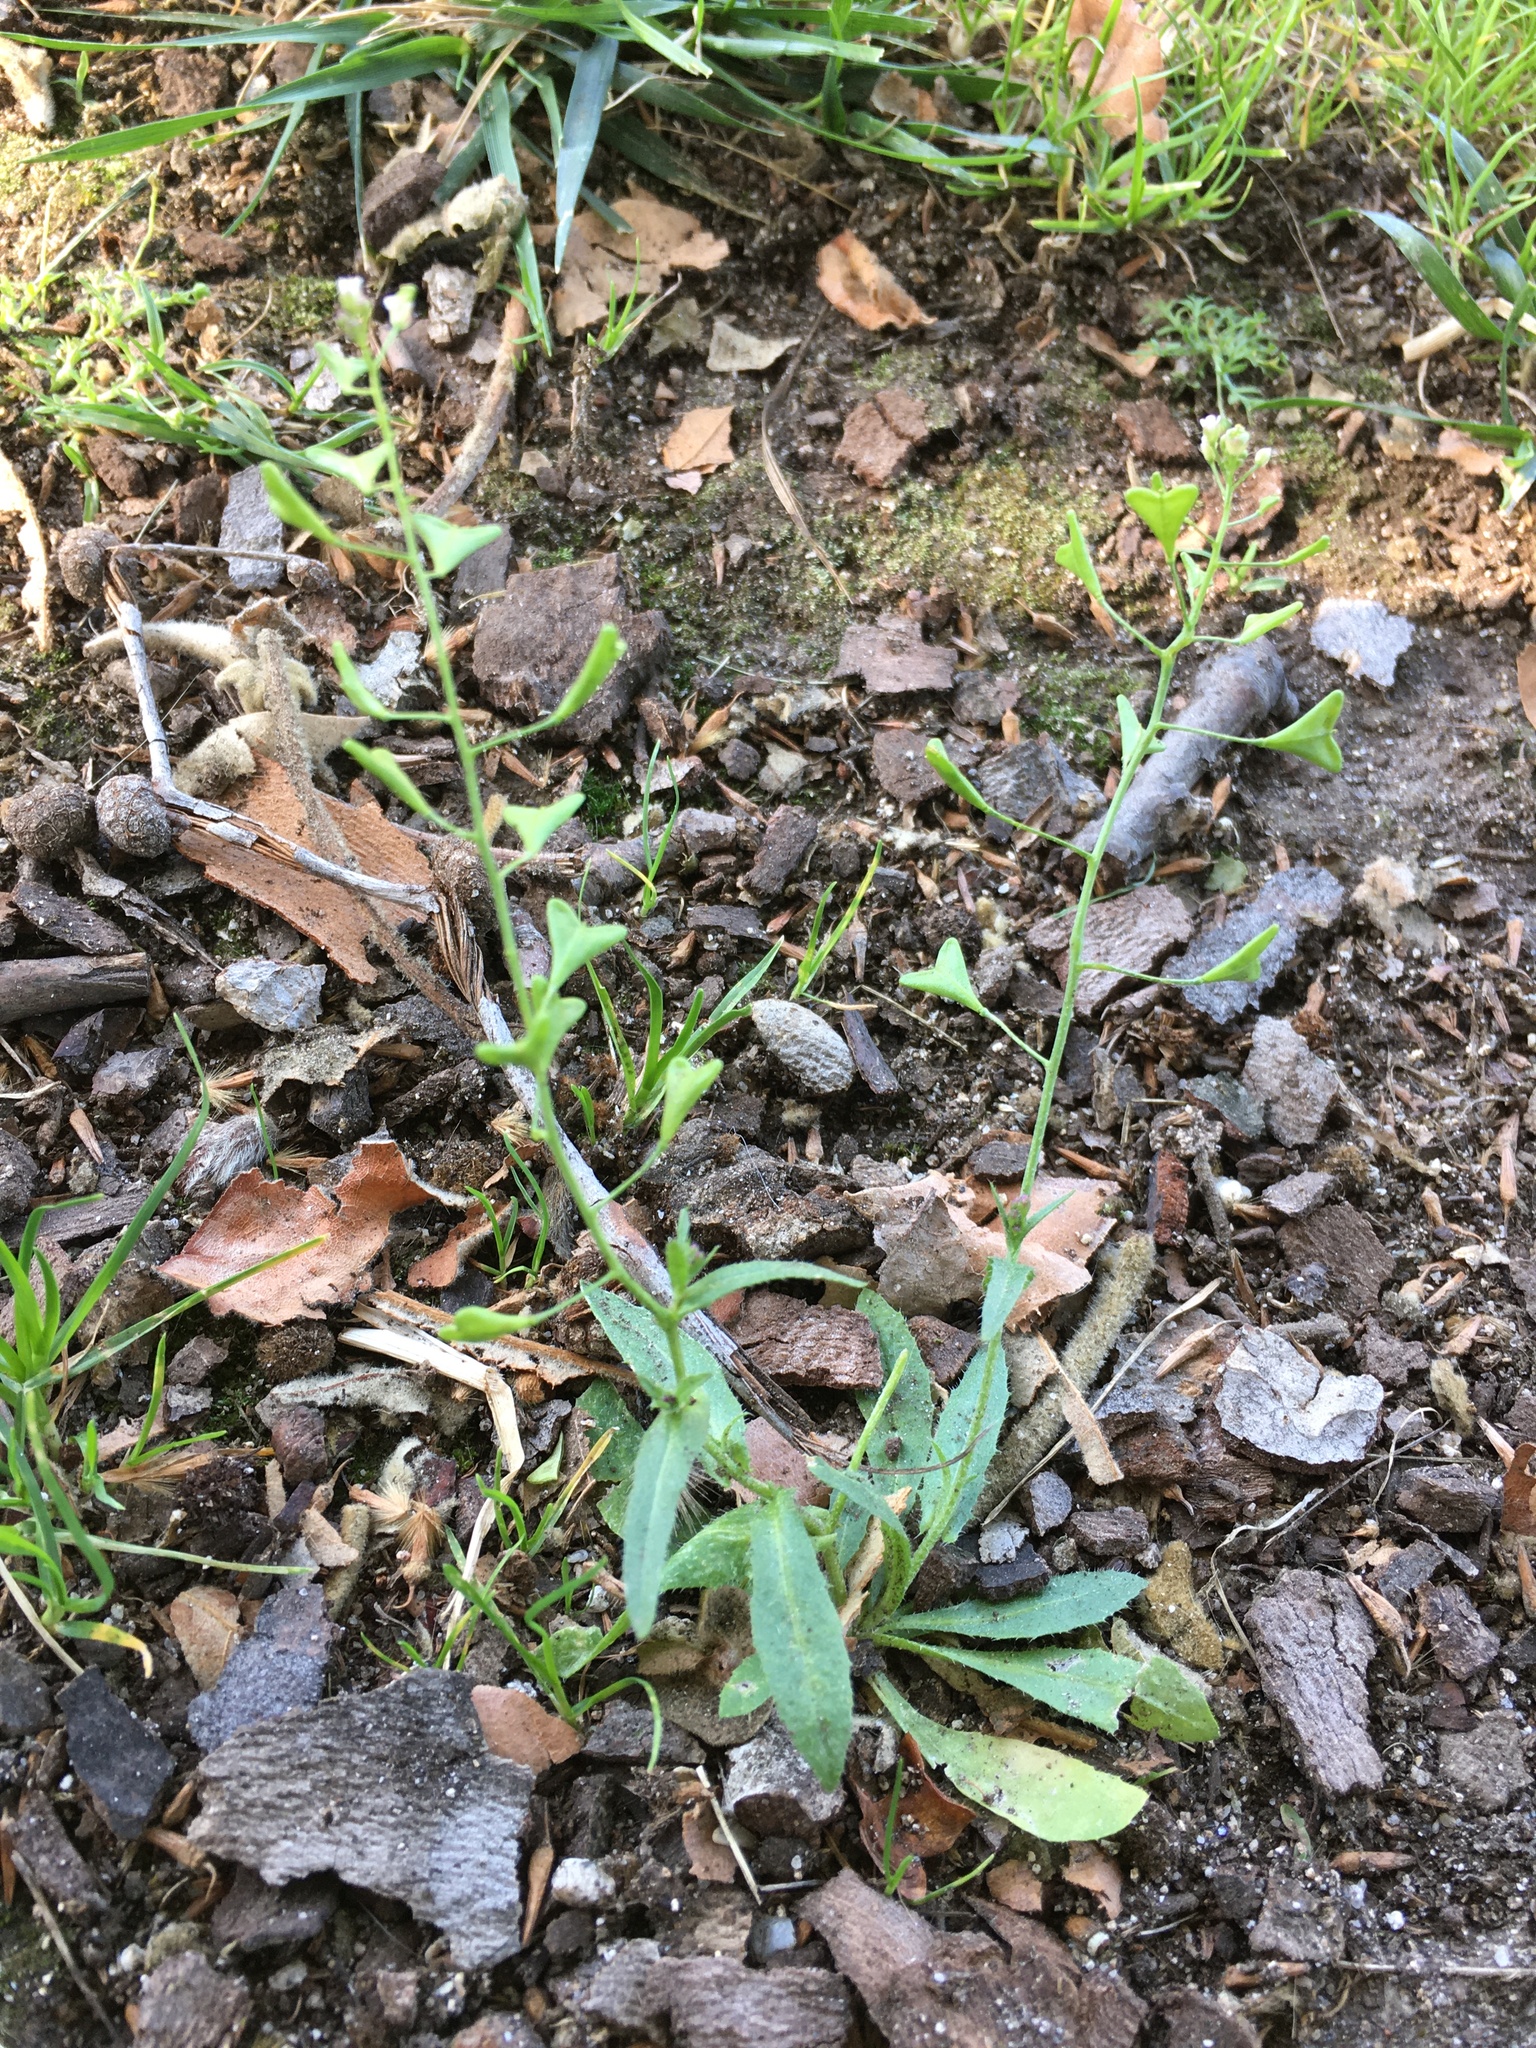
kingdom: Plantae
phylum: Tracheophyta
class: Magnoliopsida
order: Brassicales
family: Brassicaceae
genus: Capsella
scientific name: Capsella bursa-pastoris
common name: Shepherd's purse
